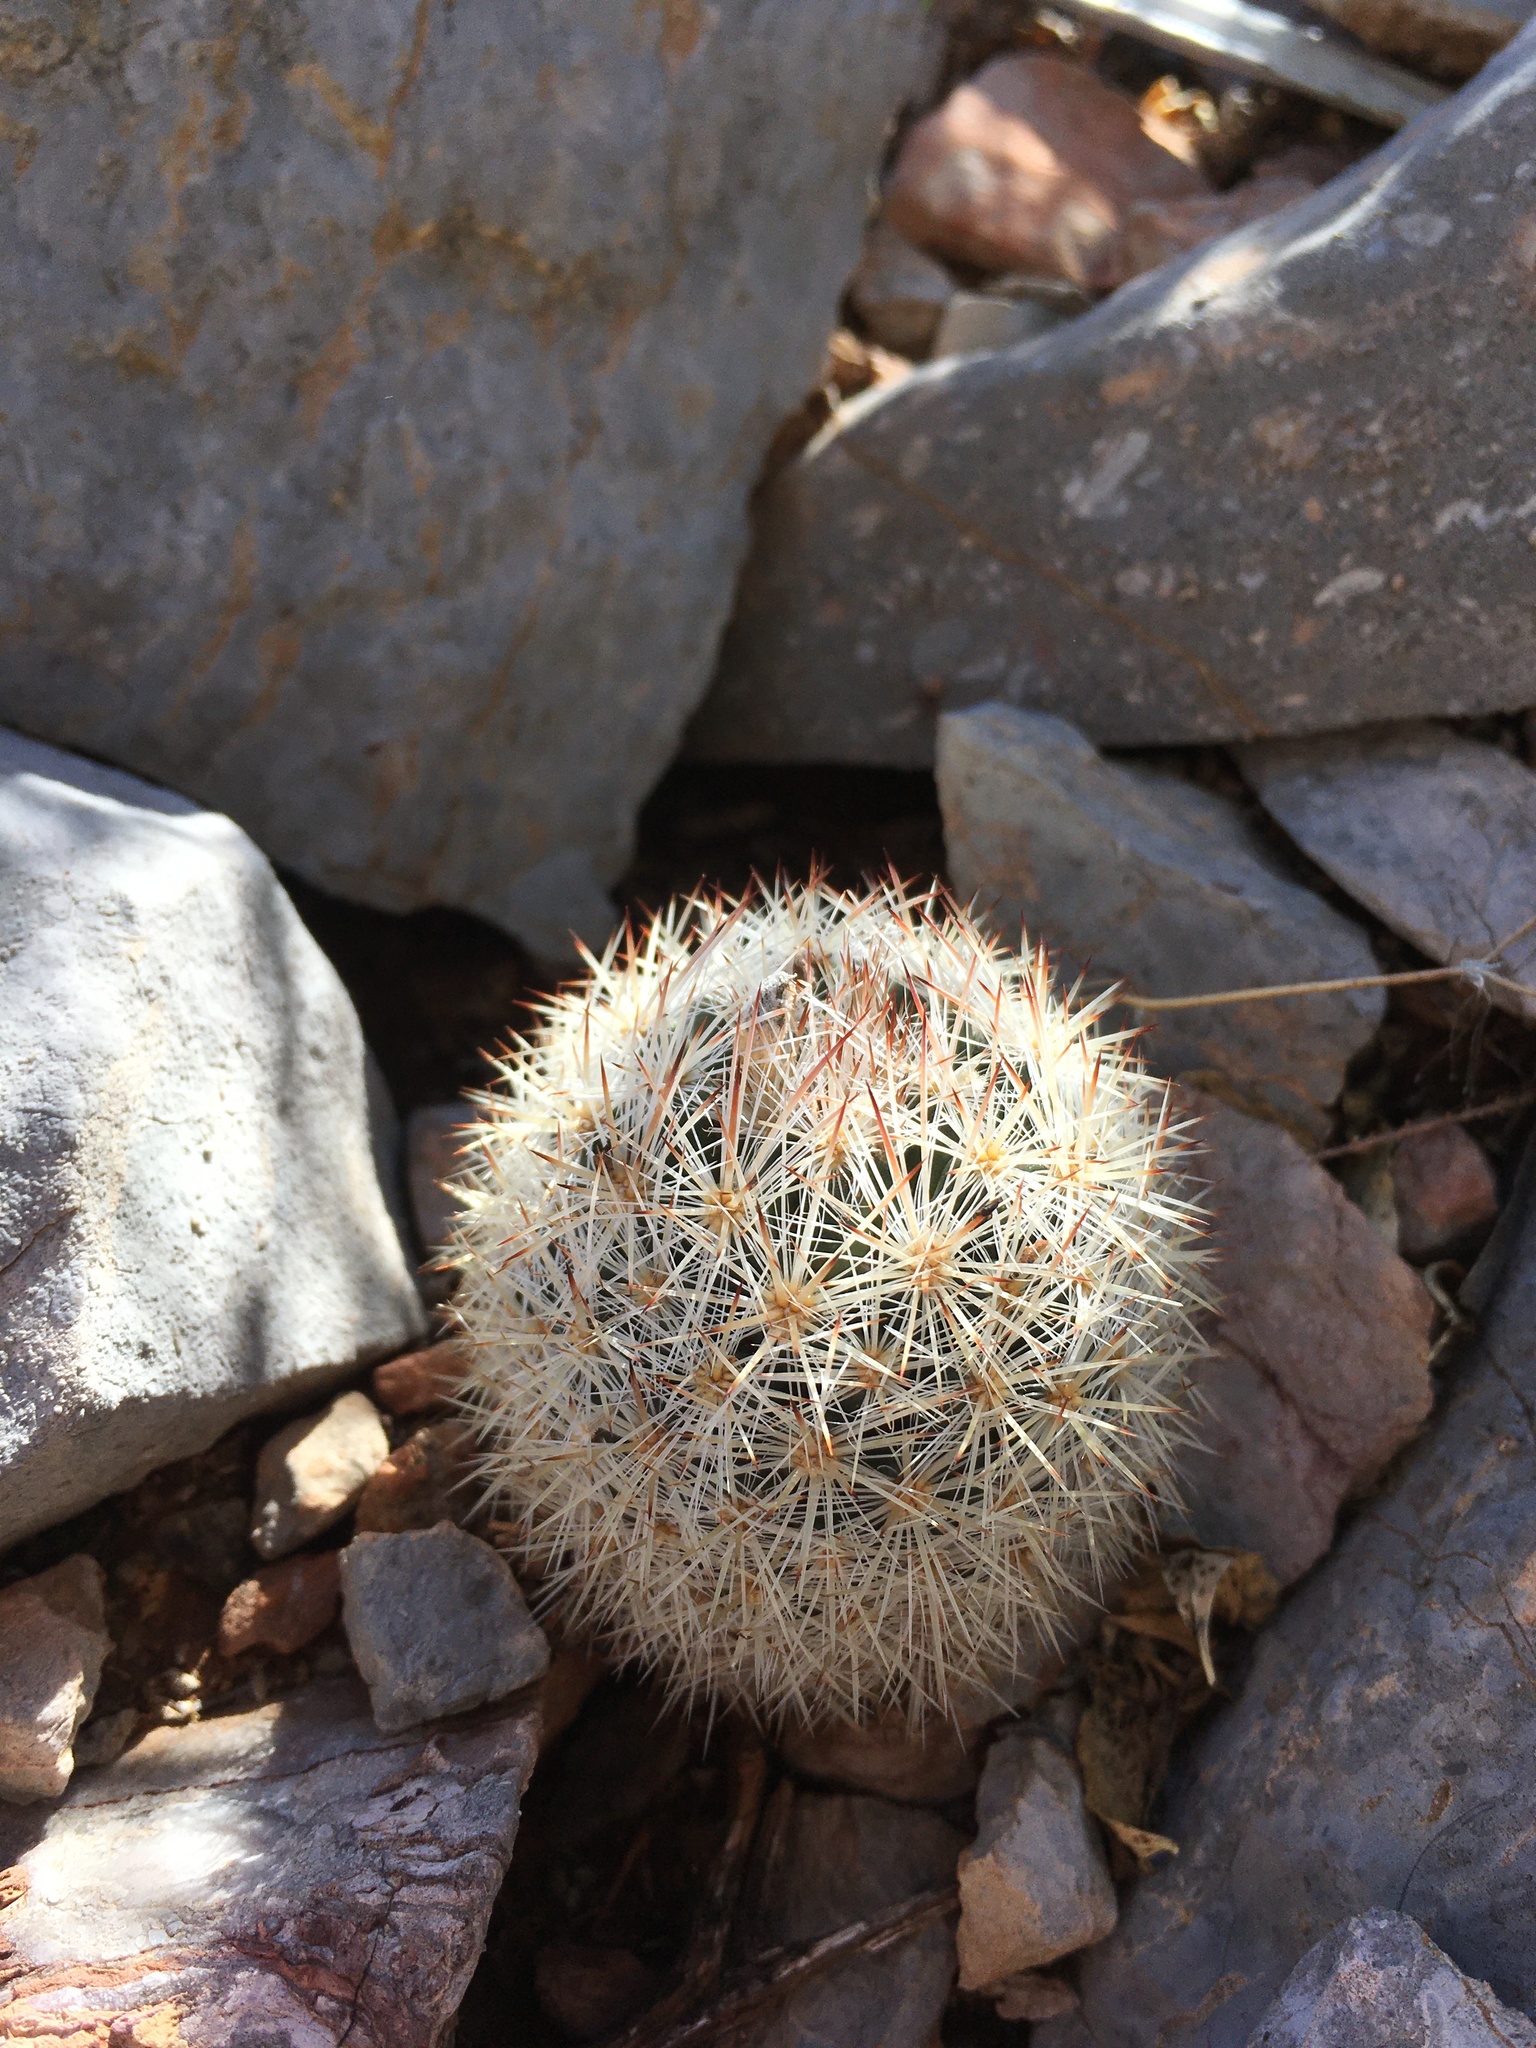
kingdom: Plantae
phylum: Tracheophyta
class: Magnoliopsida
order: Caryophyllales
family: Cactaceae
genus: Pelecyphora
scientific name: Pelecyphora sneedii
